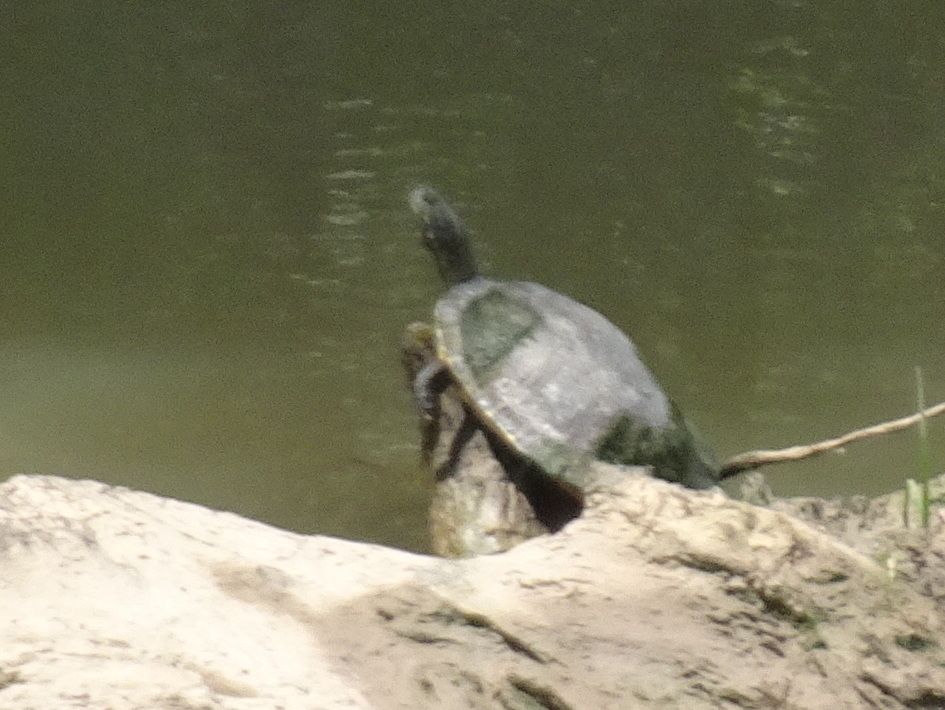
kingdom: Animalia
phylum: Chordata
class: Testudines
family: Emydidae
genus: Pseudemys
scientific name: Pseudemys concinna
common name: Eastern river cooter
